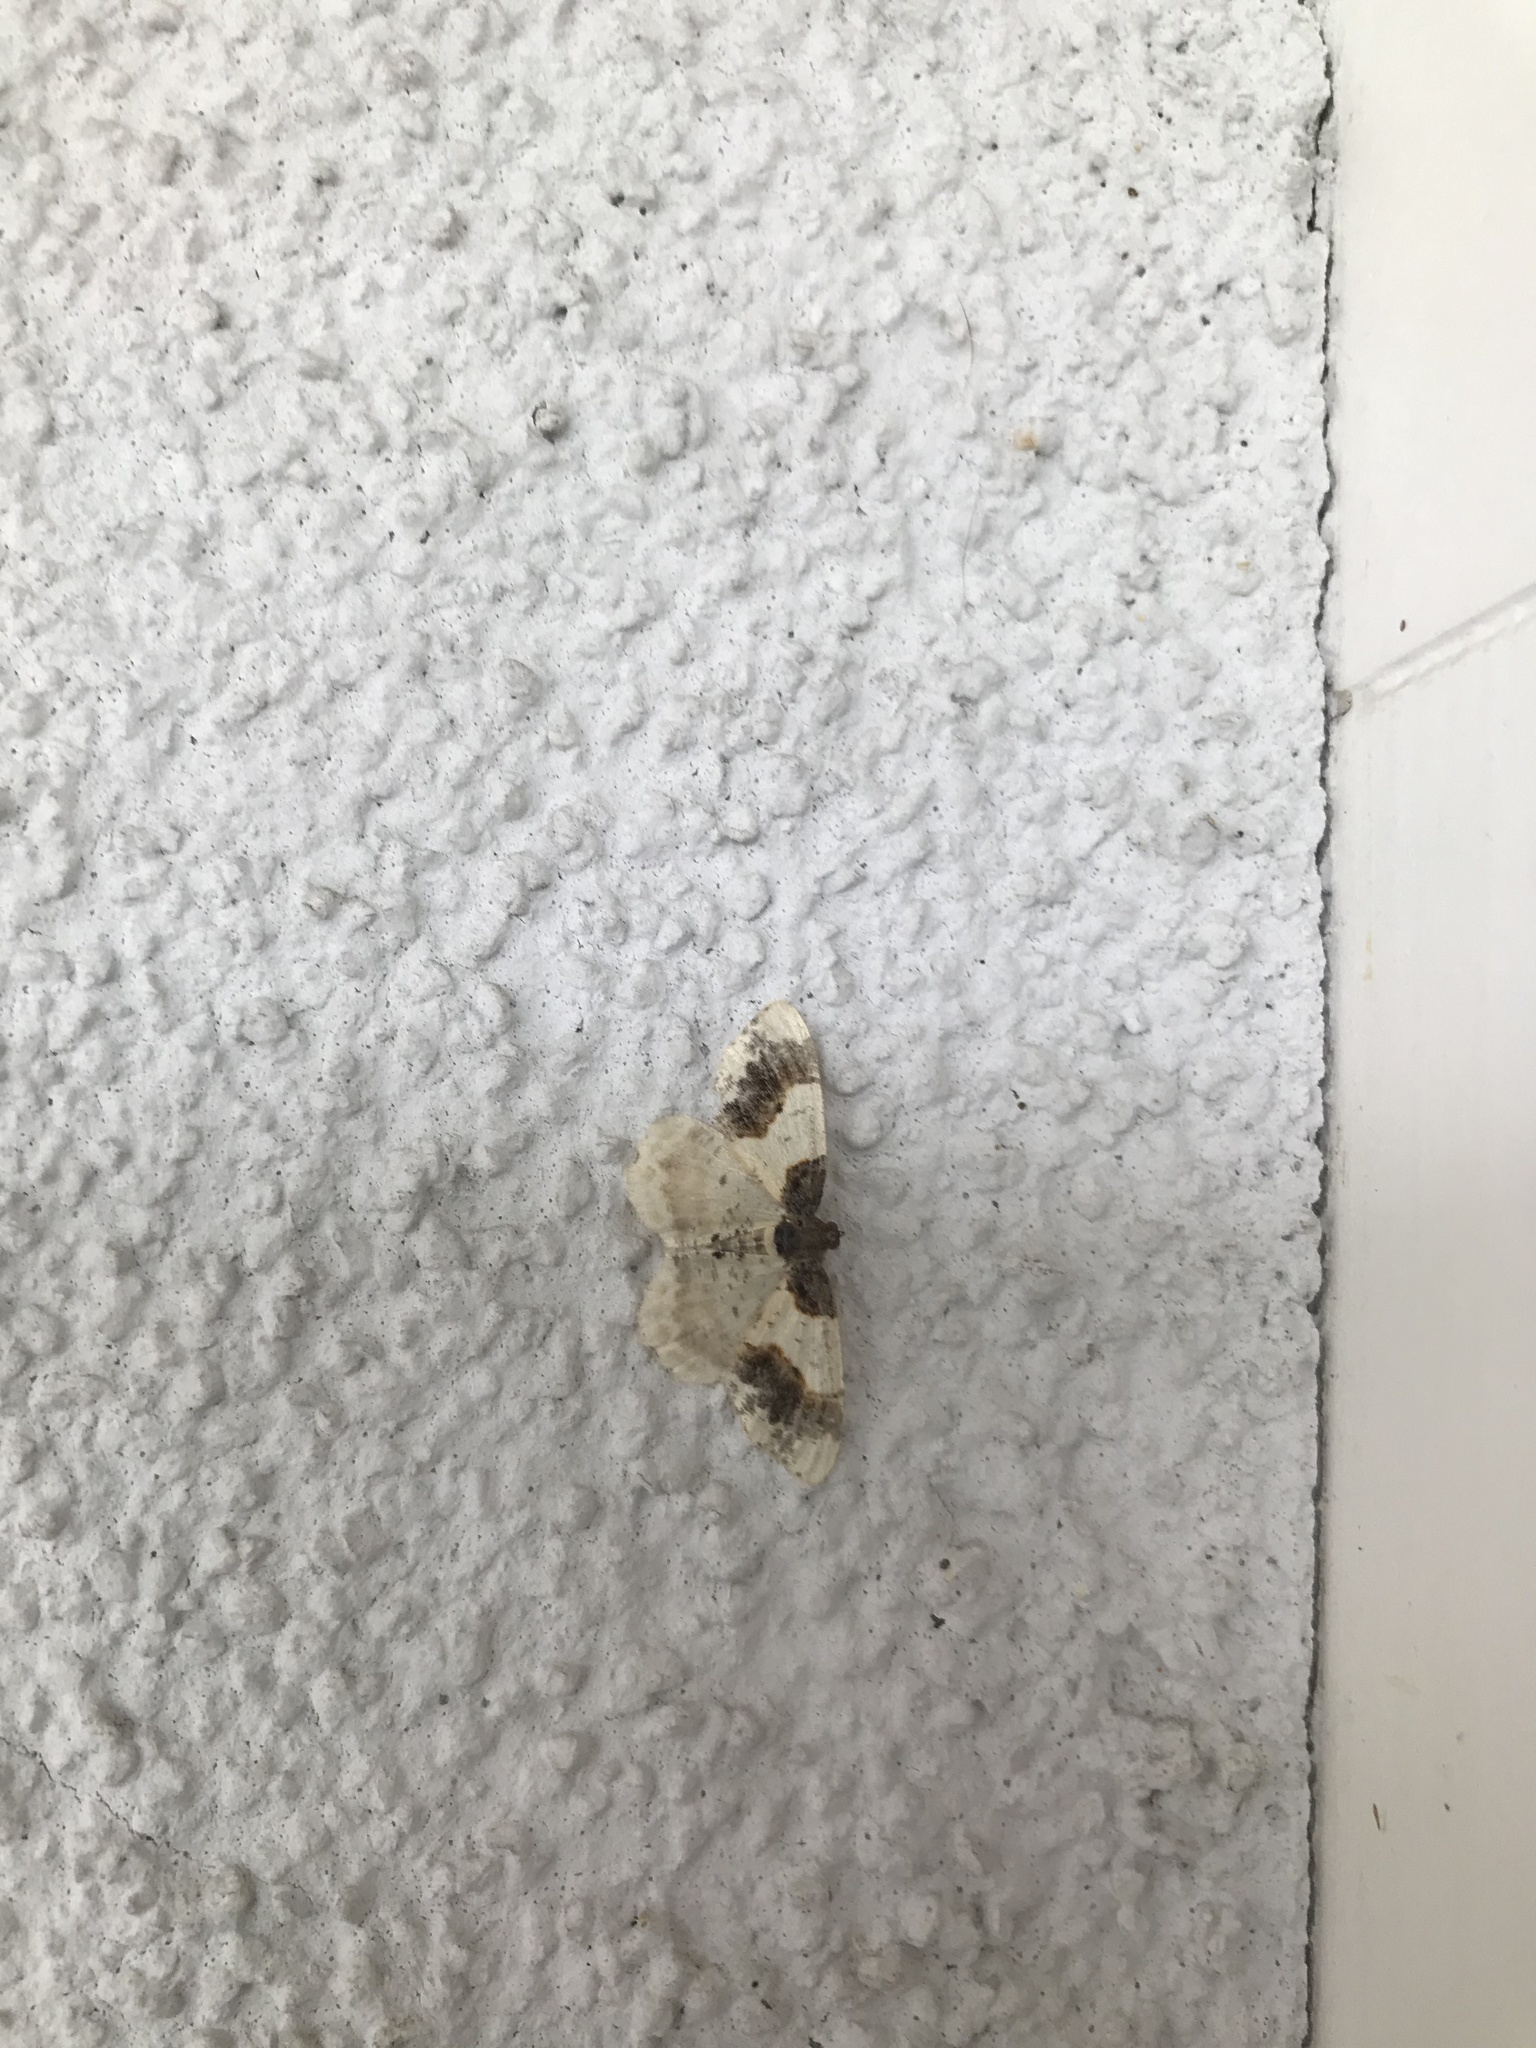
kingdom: Animalia
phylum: Arthropoda
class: Insecta
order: Lepidoptera
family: Geometridae
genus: Ligdia
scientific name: Ligdia adustata
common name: Scorched carpet
